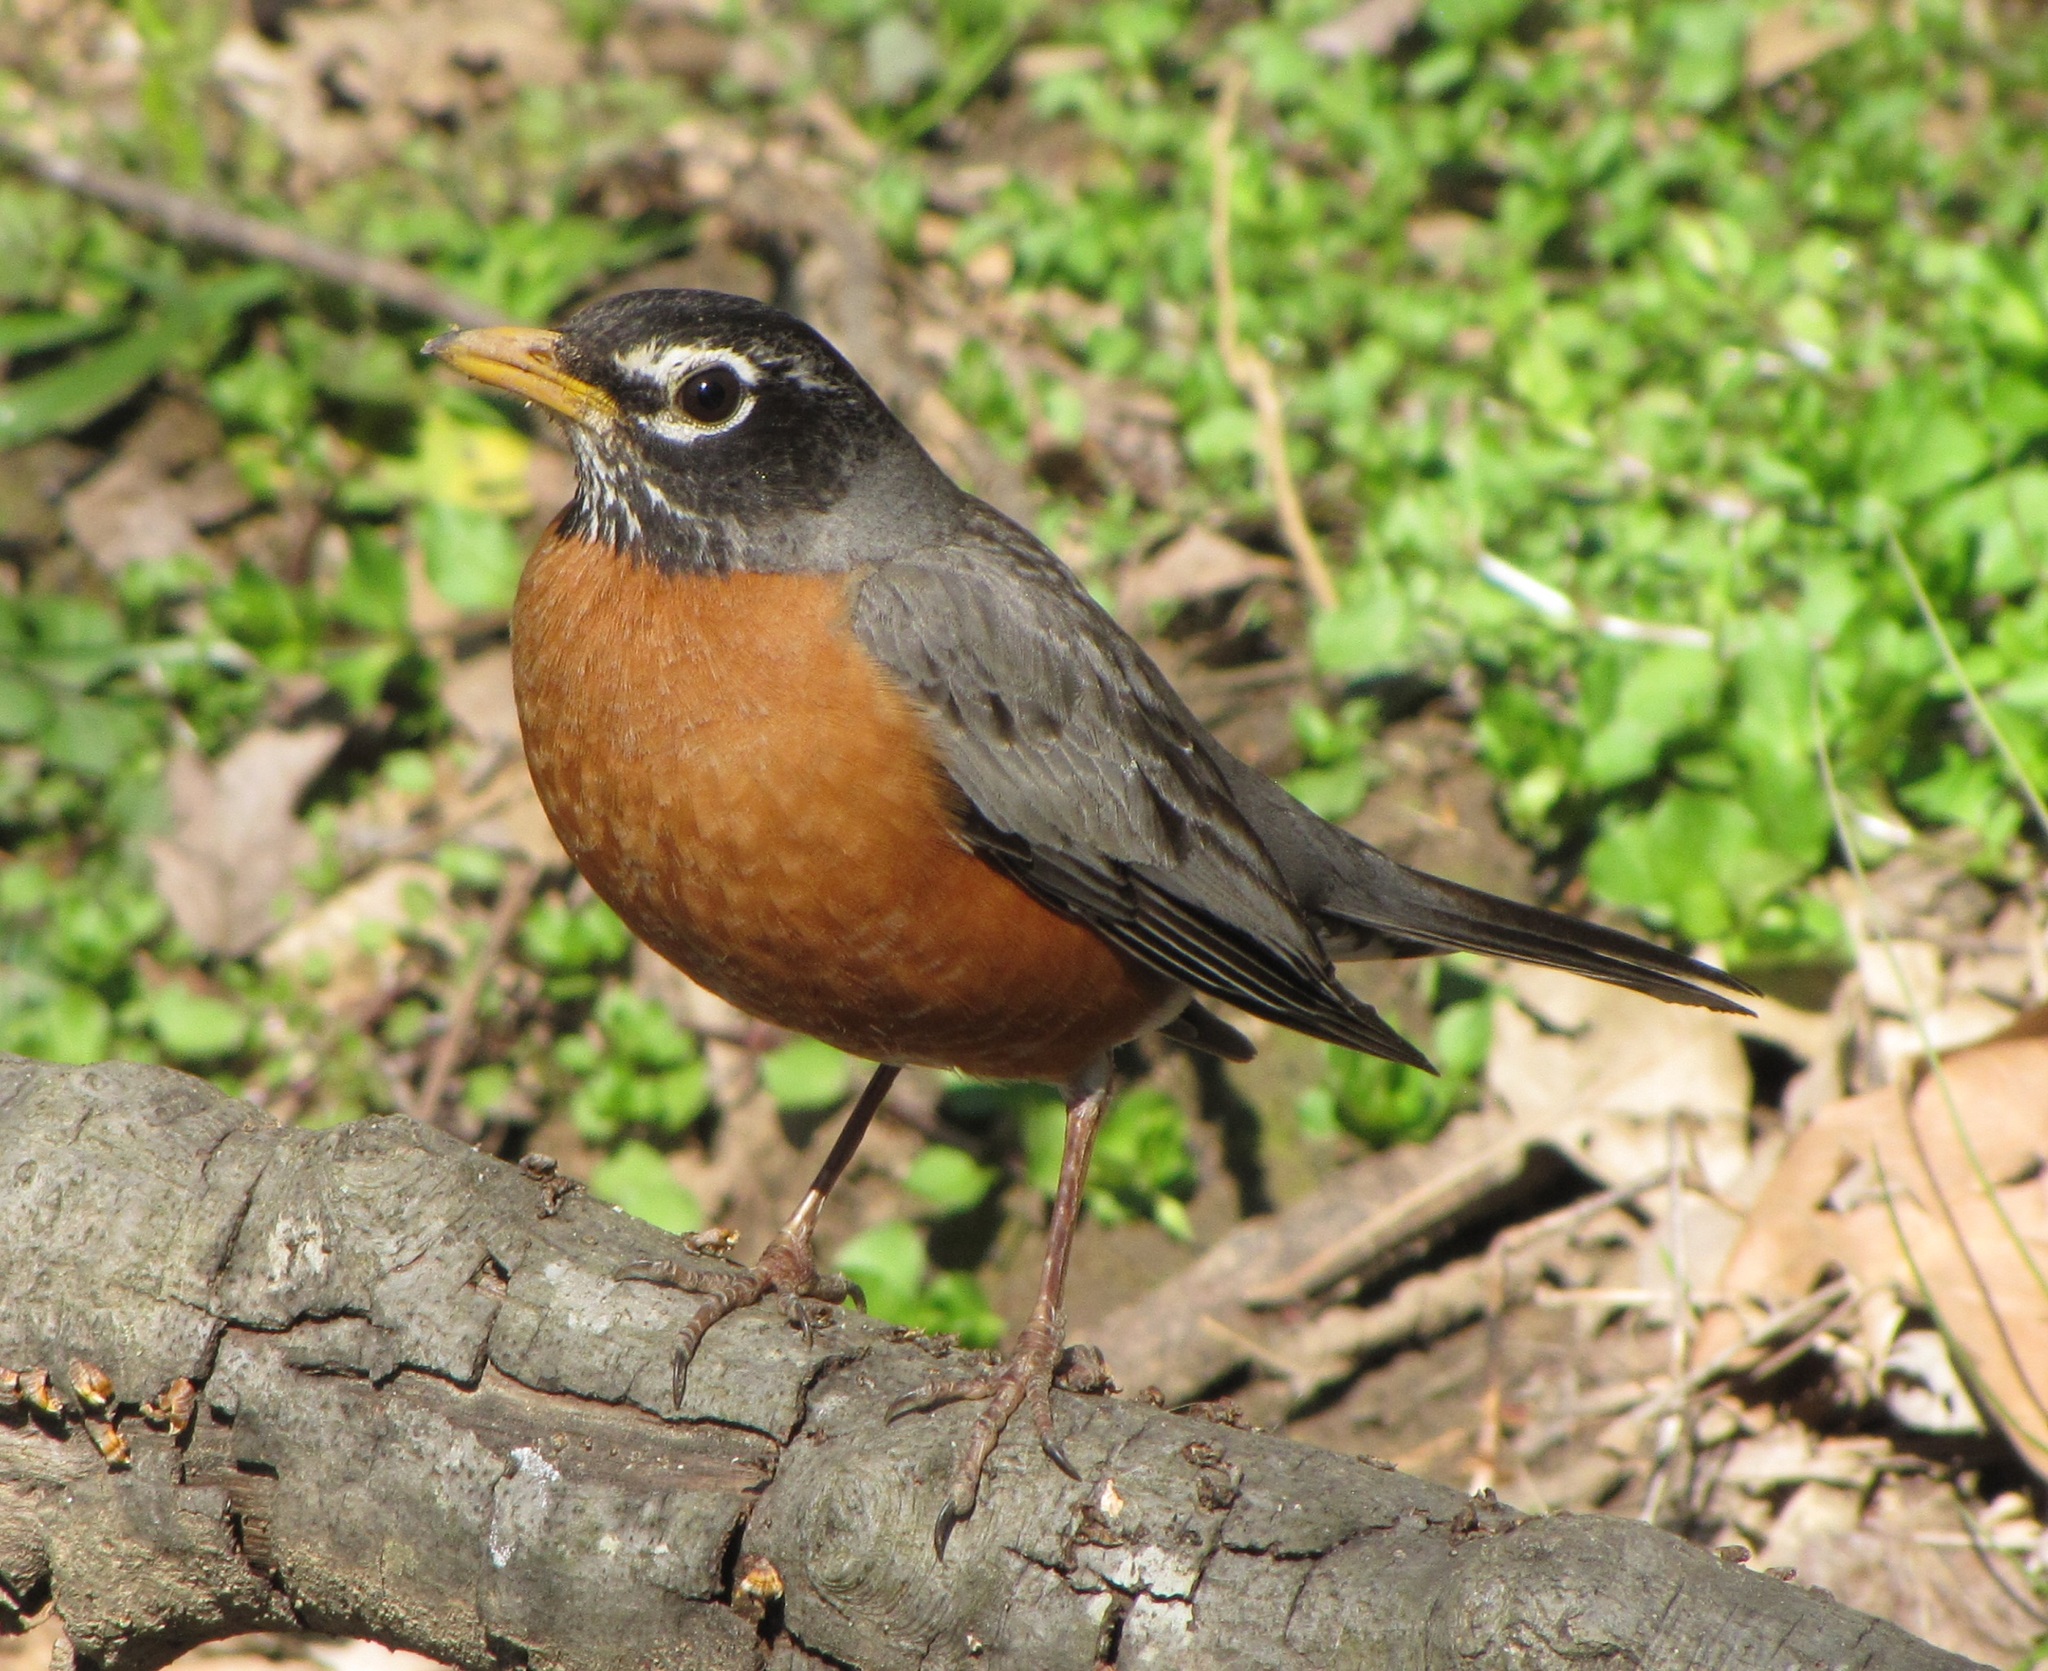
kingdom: Animalia
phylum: Chordata
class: Aves
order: Passeriformes
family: Turdidae
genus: Turdus
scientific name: Turdus migratorius
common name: American robin
